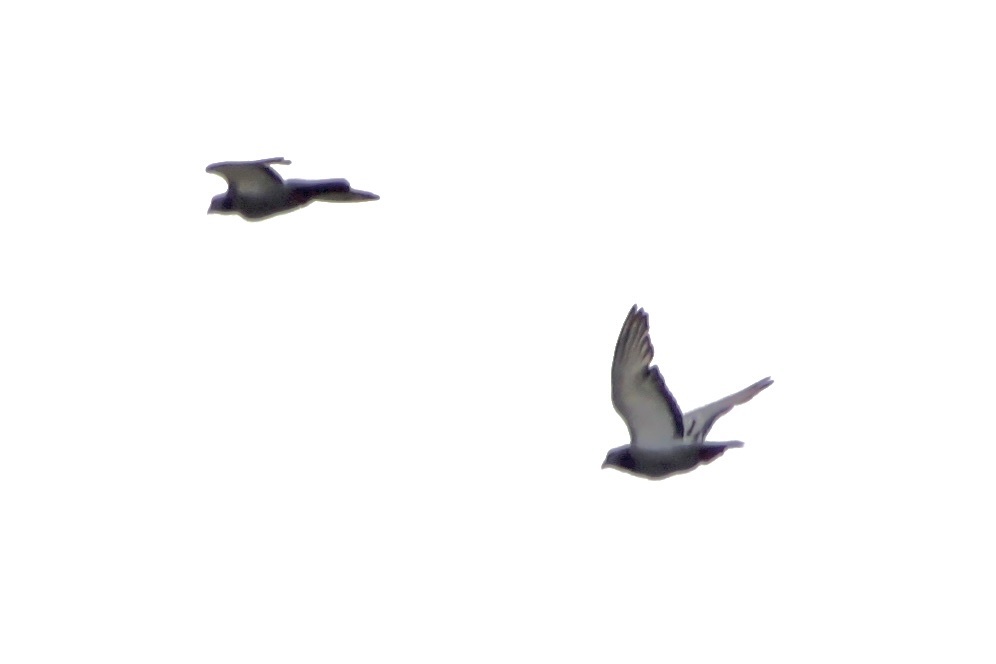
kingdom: Animalia
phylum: Chordata
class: Aves
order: Columbiformes
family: Columbidae
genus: Columba
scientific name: Columba livia
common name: Rock pigeon
